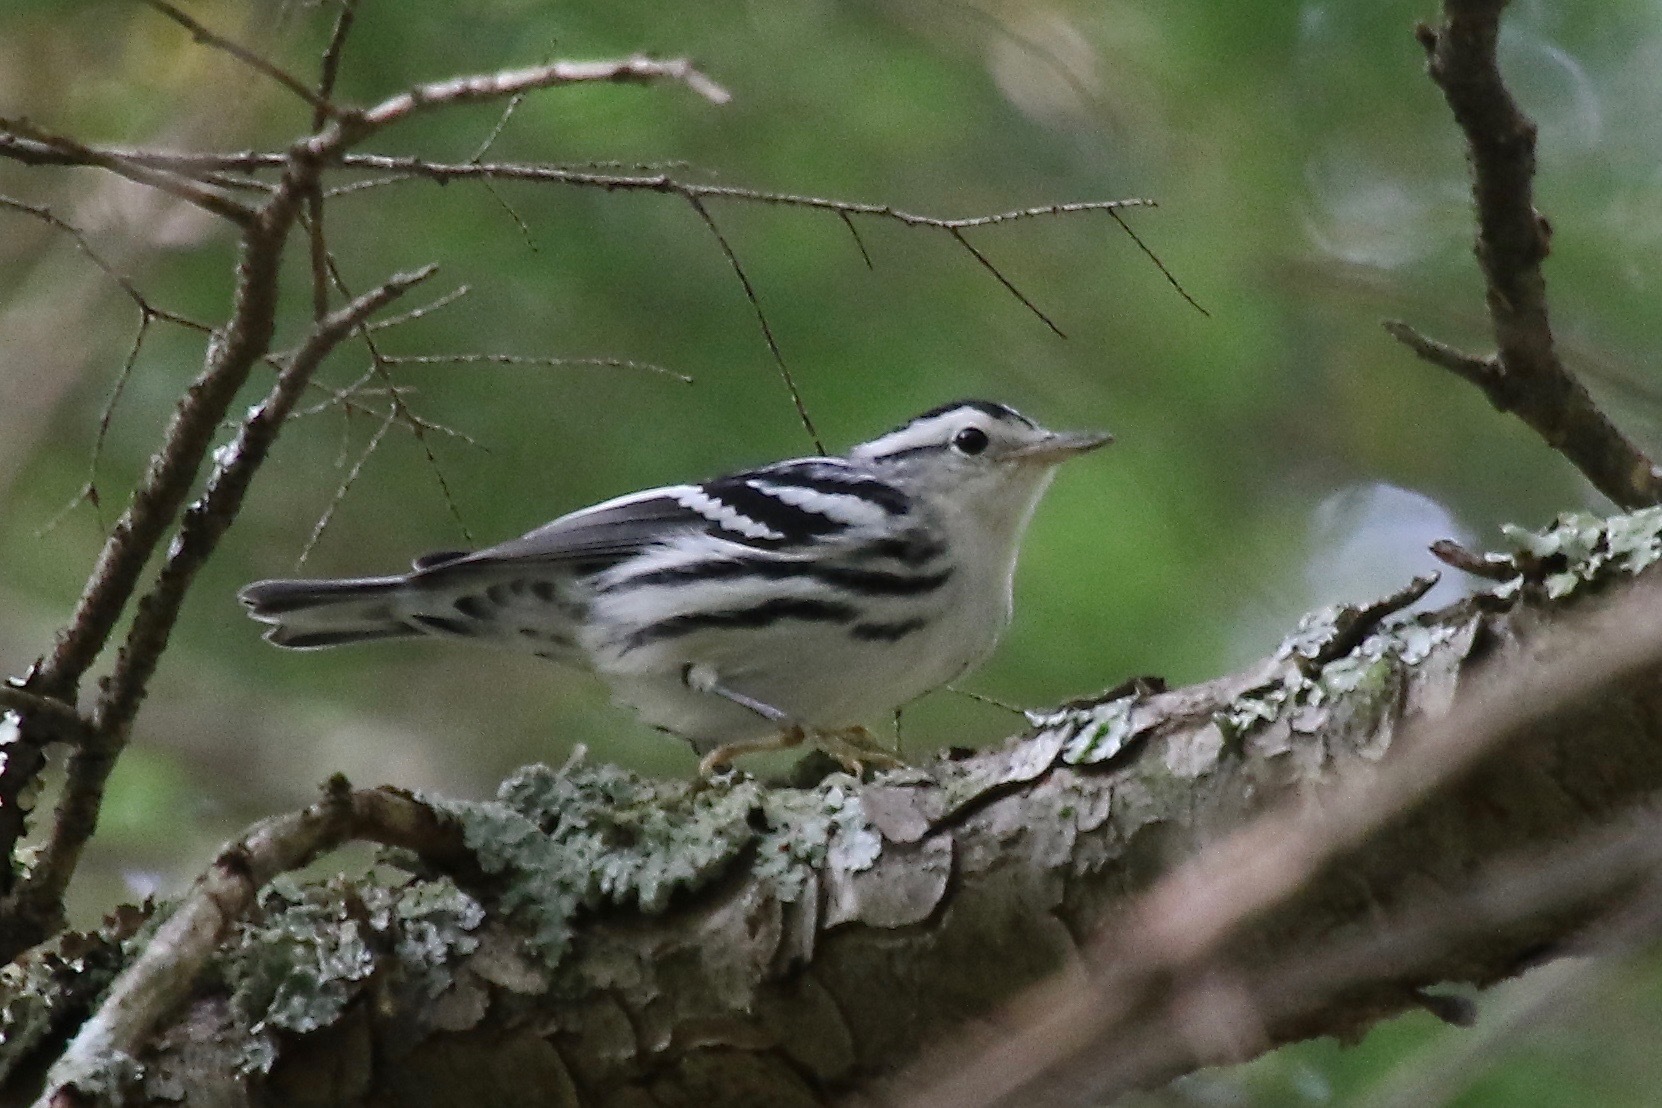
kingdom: Animalia
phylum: Chordata
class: Aves
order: Passeriformes
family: Parulidae
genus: Mniotilta
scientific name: Mniotilta varia
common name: Black-and-white warbler
